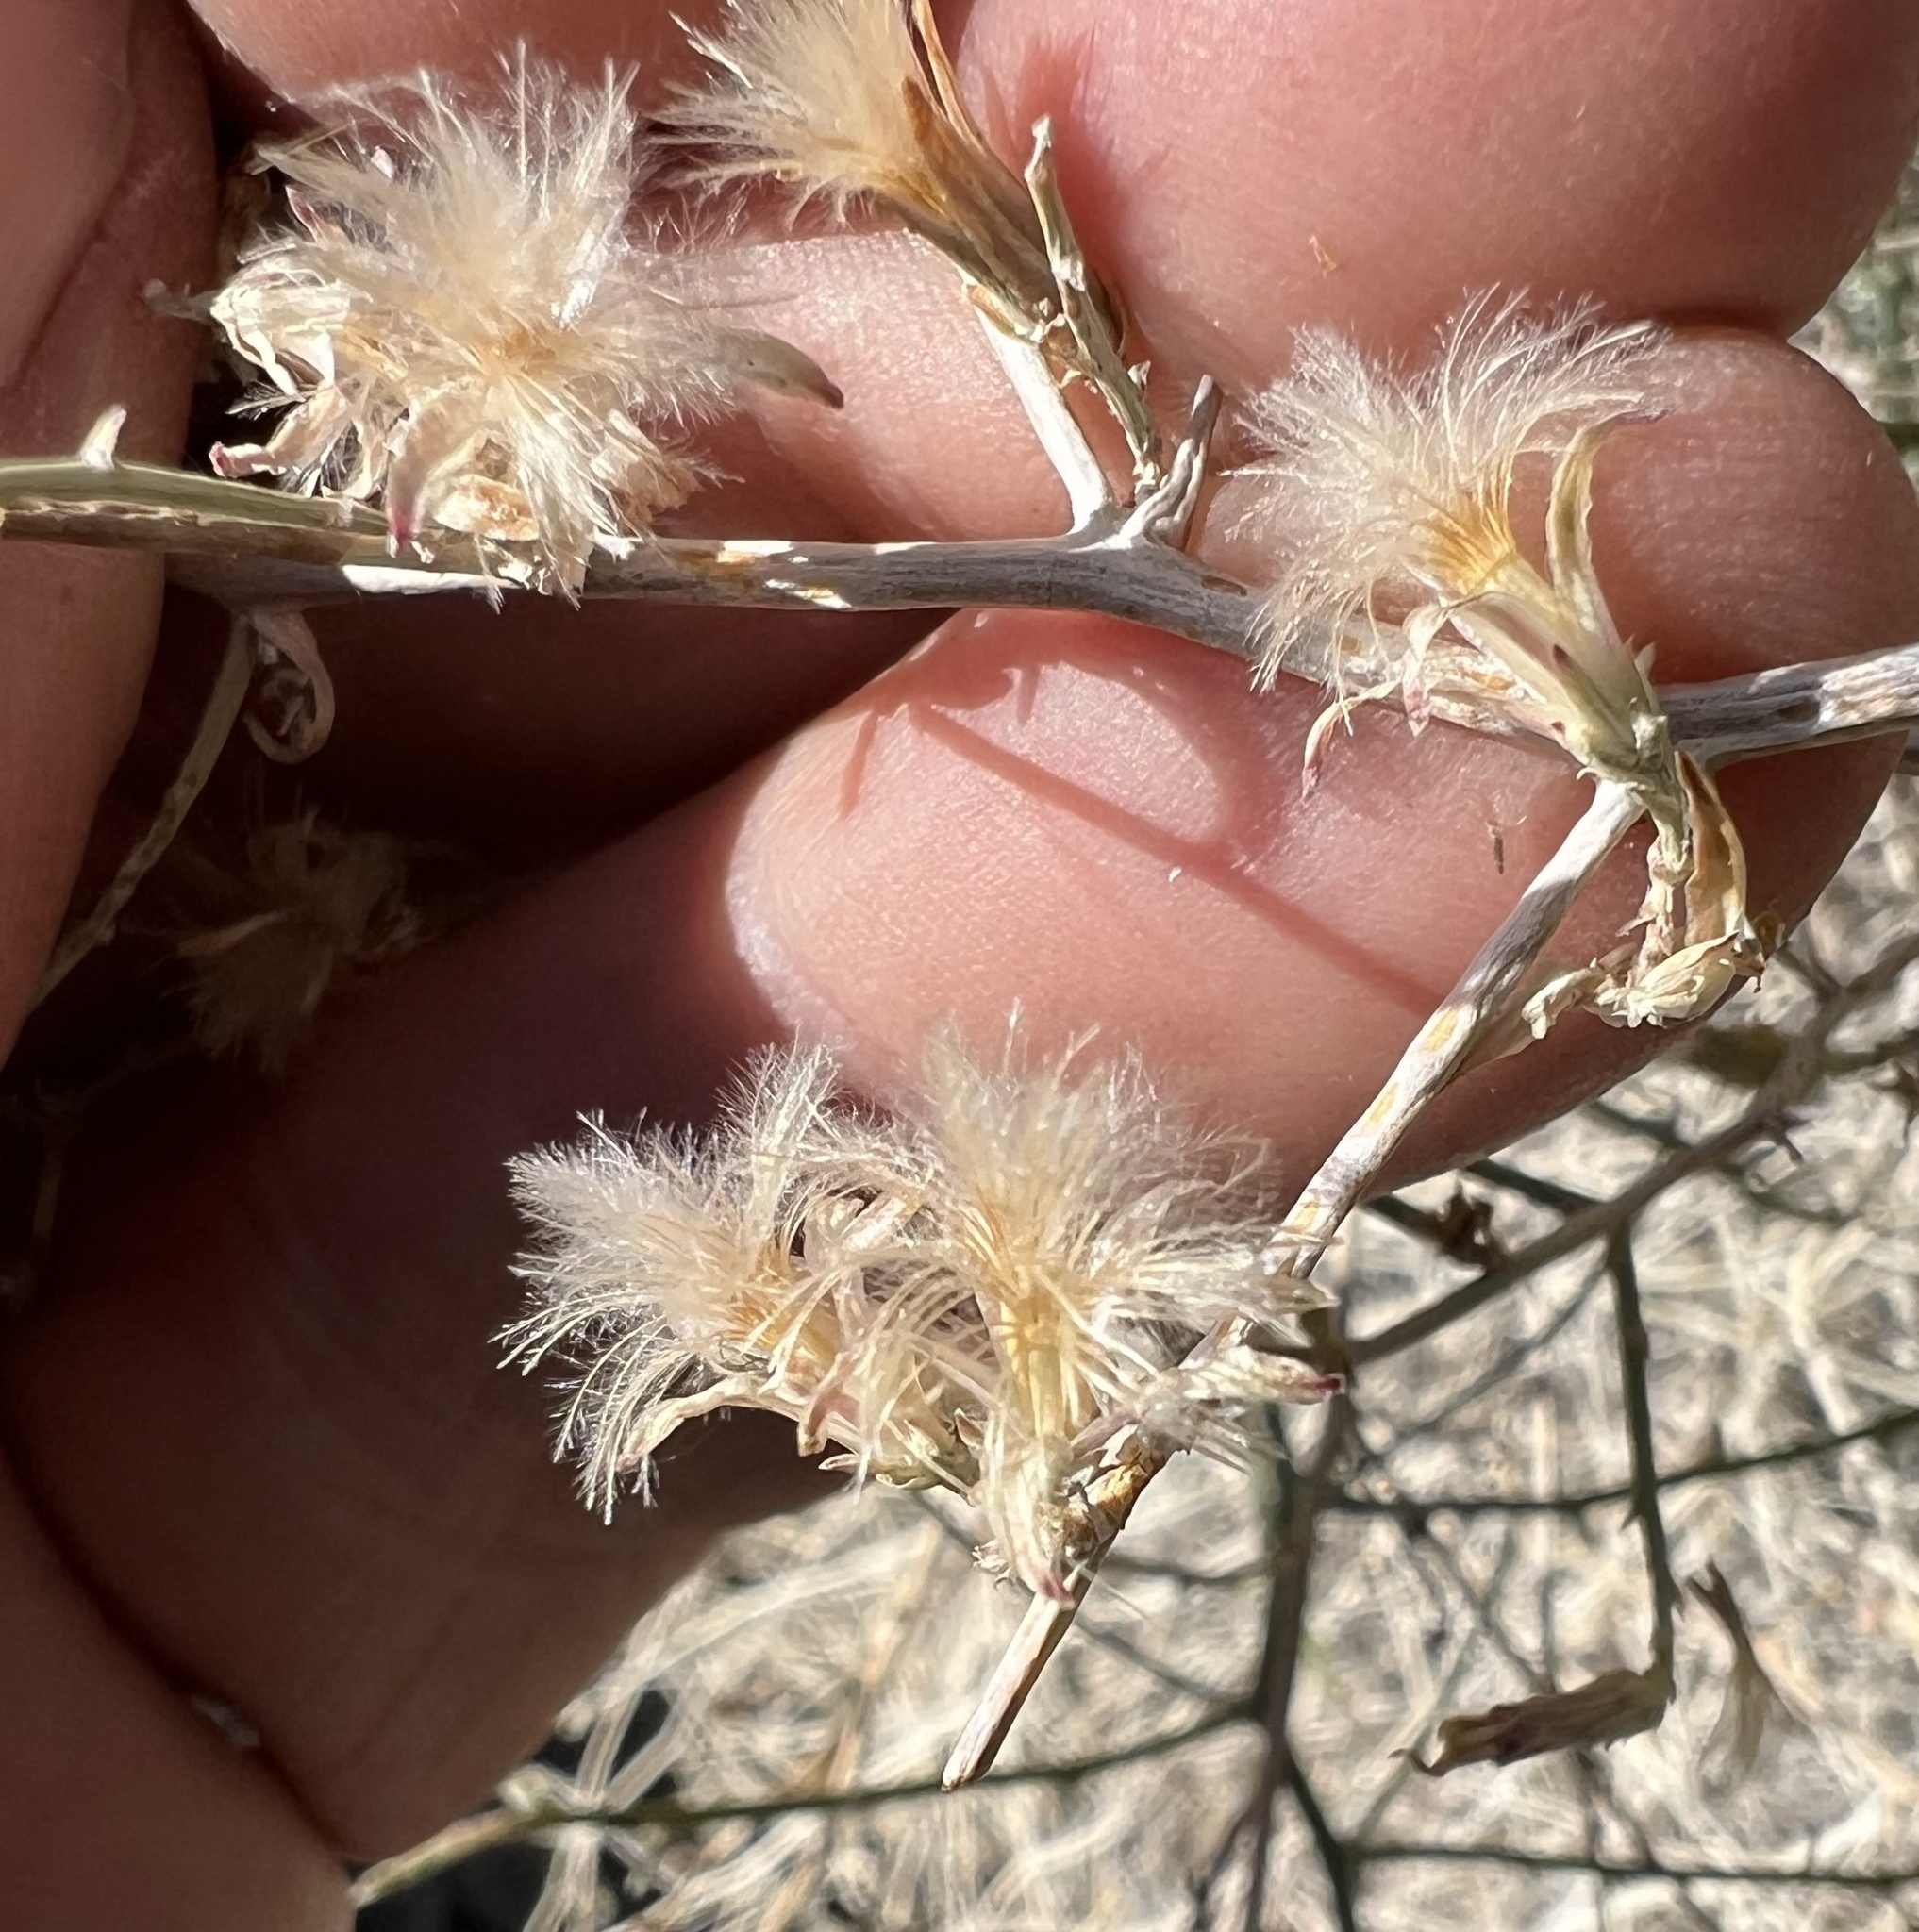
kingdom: Plantae
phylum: Tracheophyta
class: Magnoliopsida
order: Asterales
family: Asteraceae
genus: Stephanomeria
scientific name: Stephanomeria pauciflora
